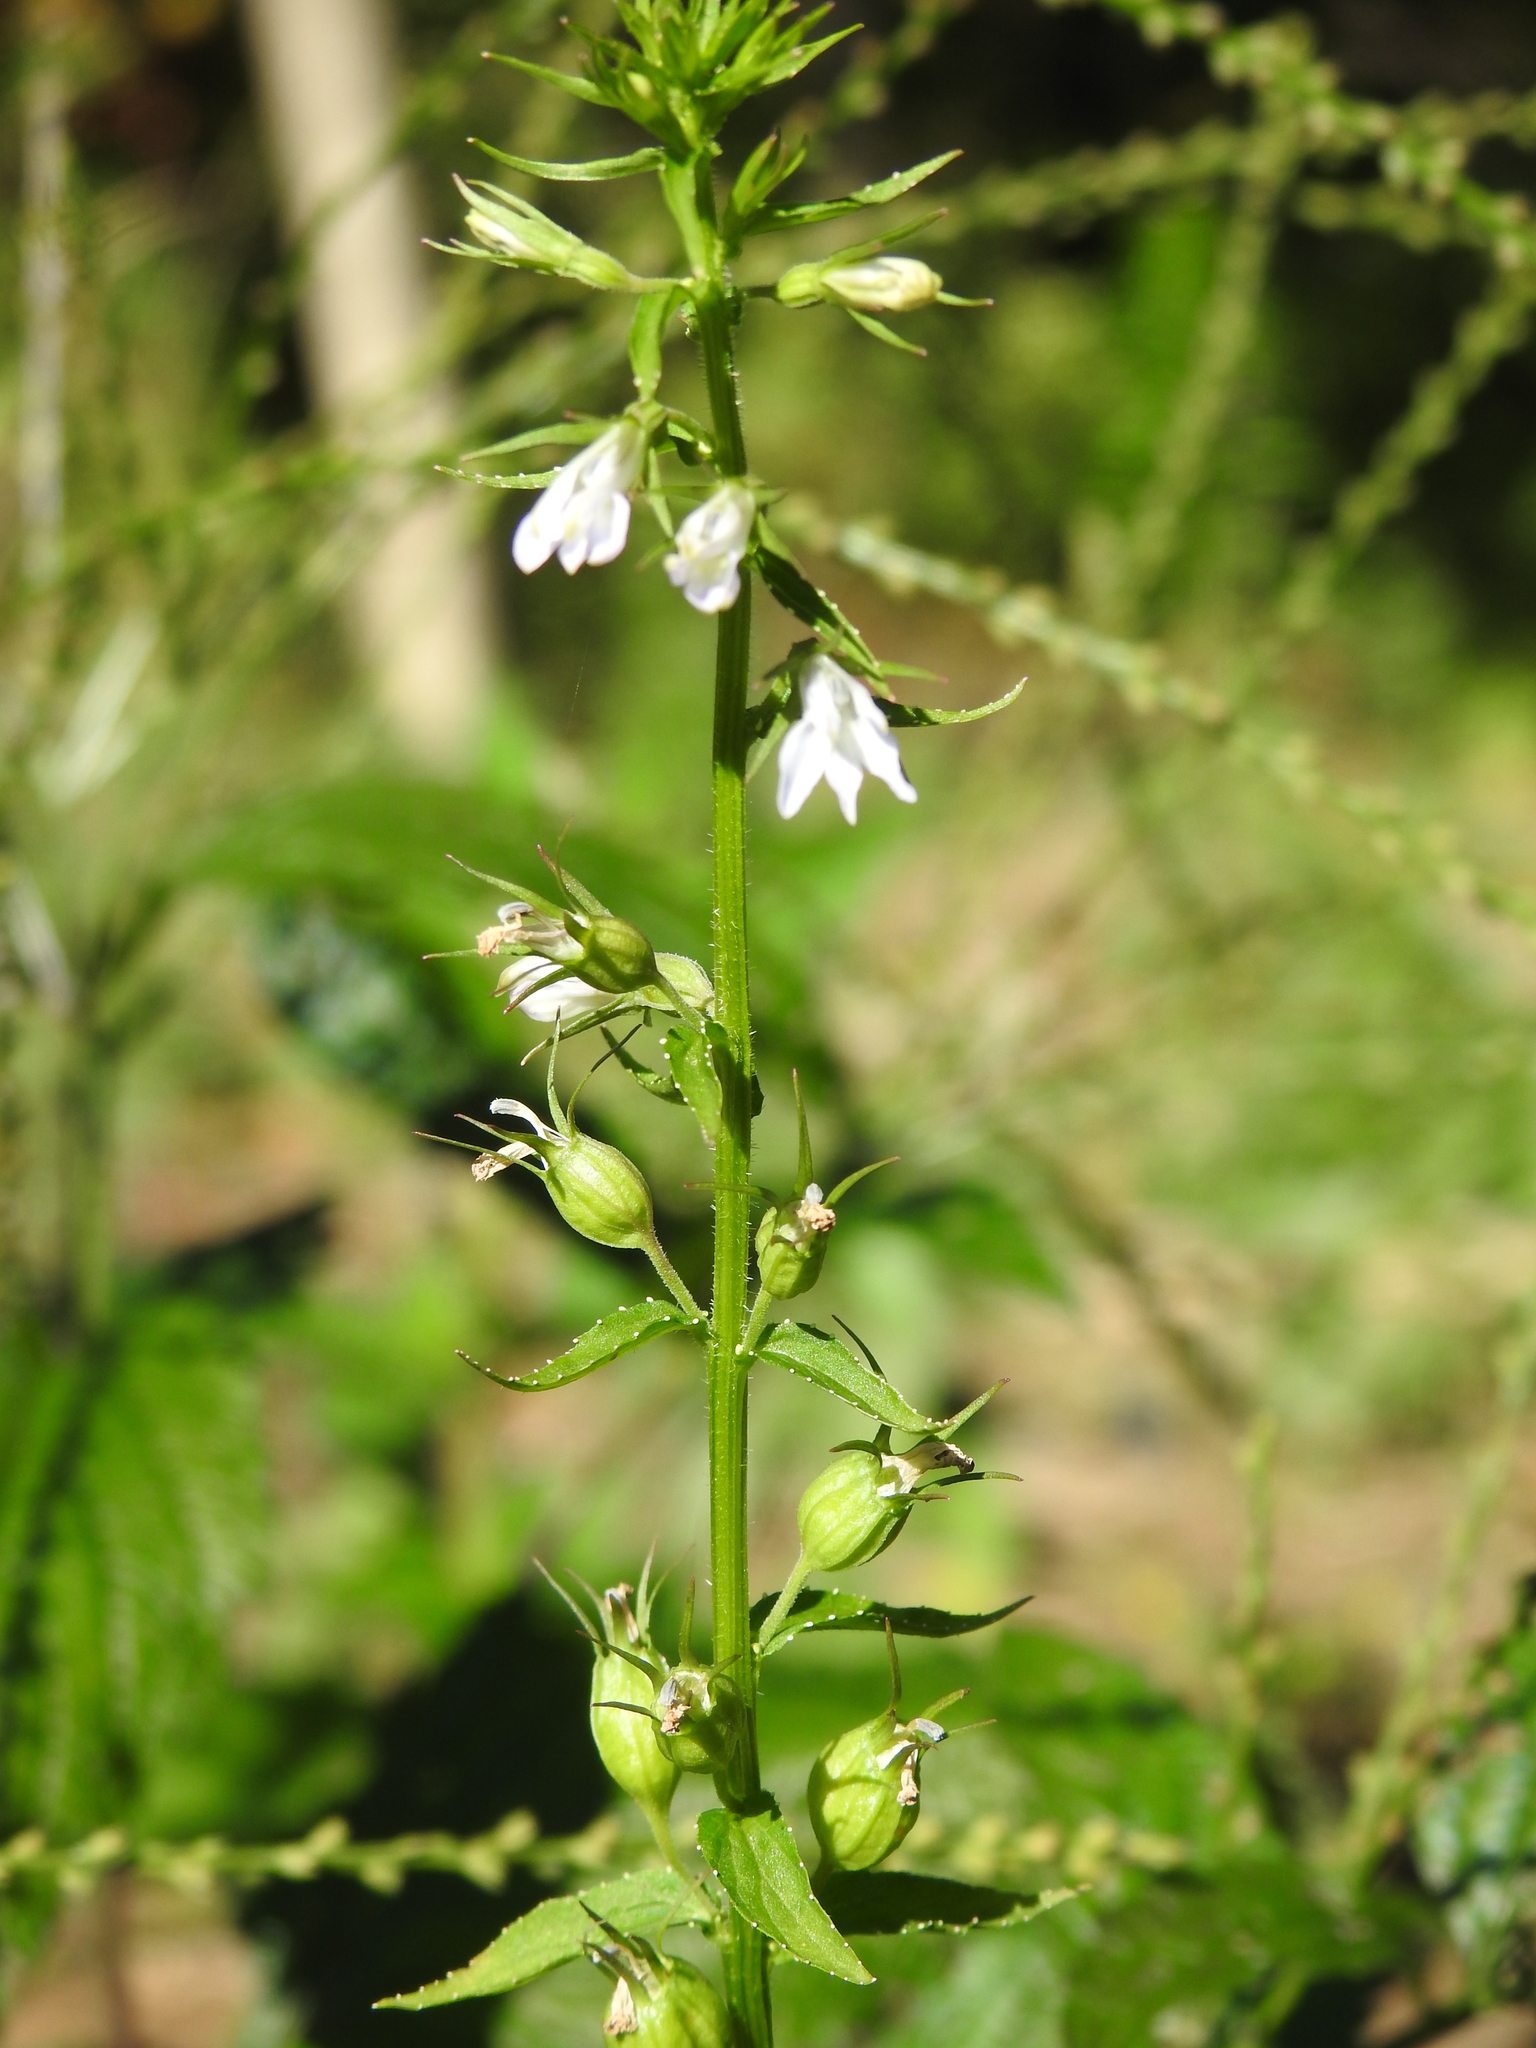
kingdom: Plantae
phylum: Tracheophyta
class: Magnoliopsida
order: Asterales
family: Campanulaceae
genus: Lobelia
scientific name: Lobelia inflata
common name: Indian tobacco
